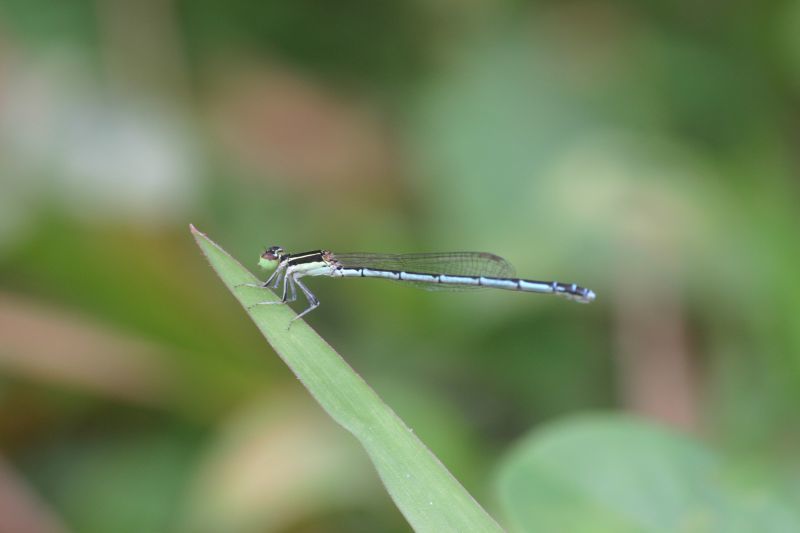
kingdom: Animalia
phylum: Arthropoda
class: Insecta
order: Odonata
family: Coenagrionidae
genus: Agriocnemis
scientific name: Agriocnemis pieris
